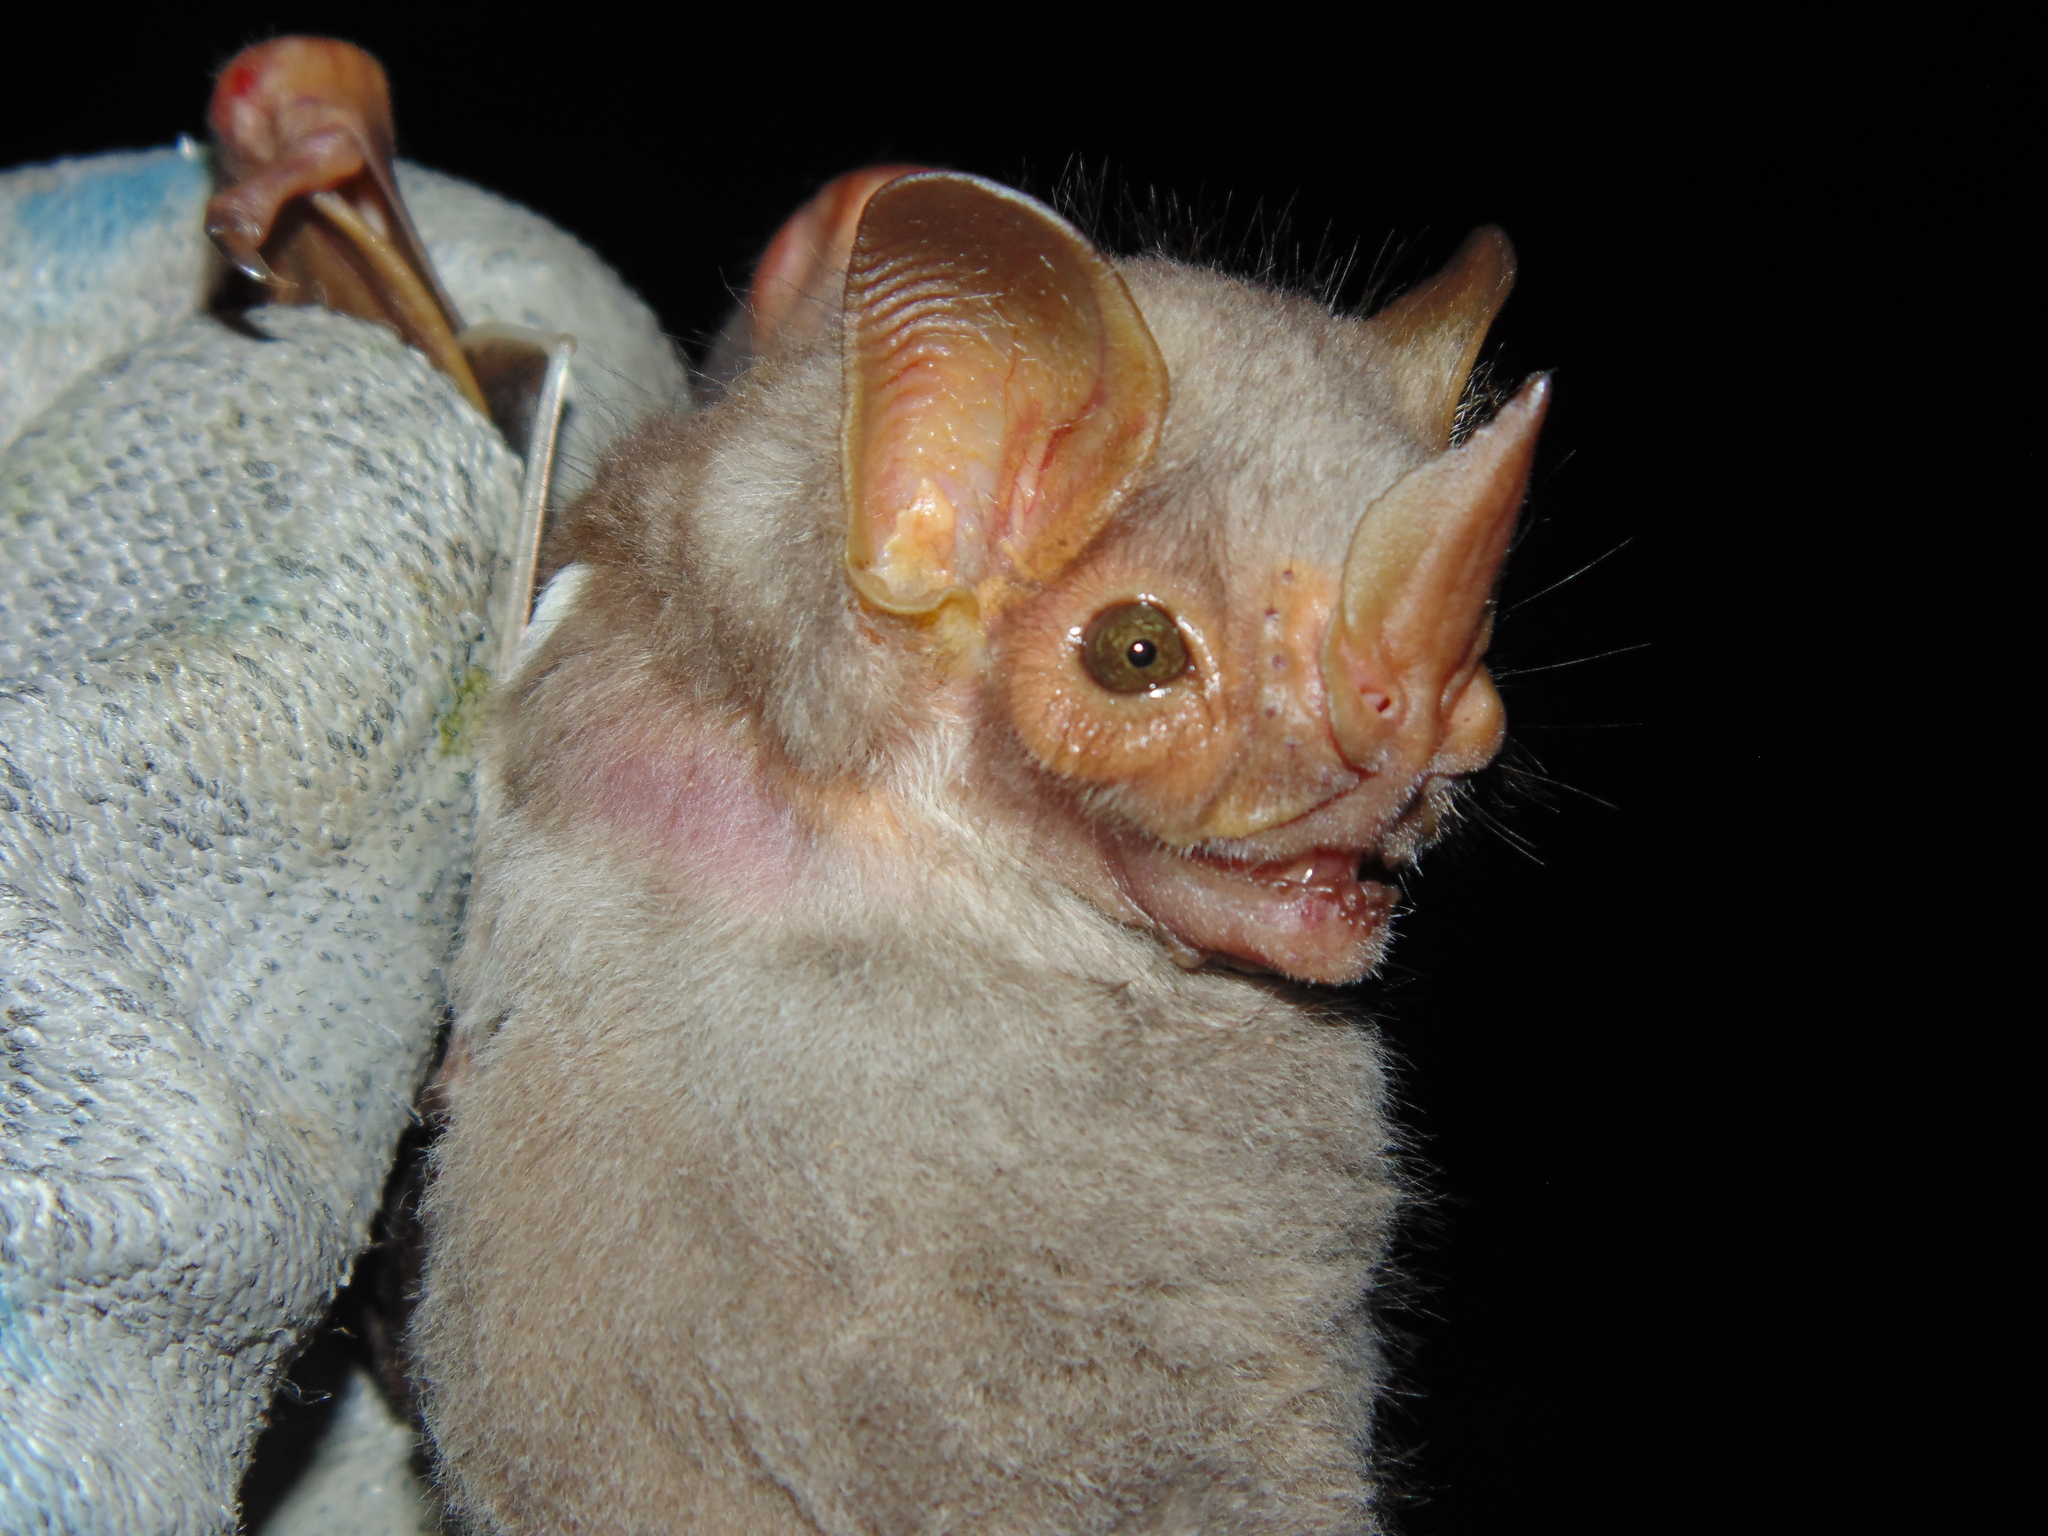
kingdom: Animalia
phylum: Chordata
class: Mammalia
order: Chiroptera
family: Phyllostomidae
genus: Pygoderma
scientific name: Pygoderma bilabiatum
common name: Ipanema broad-nosed bat
